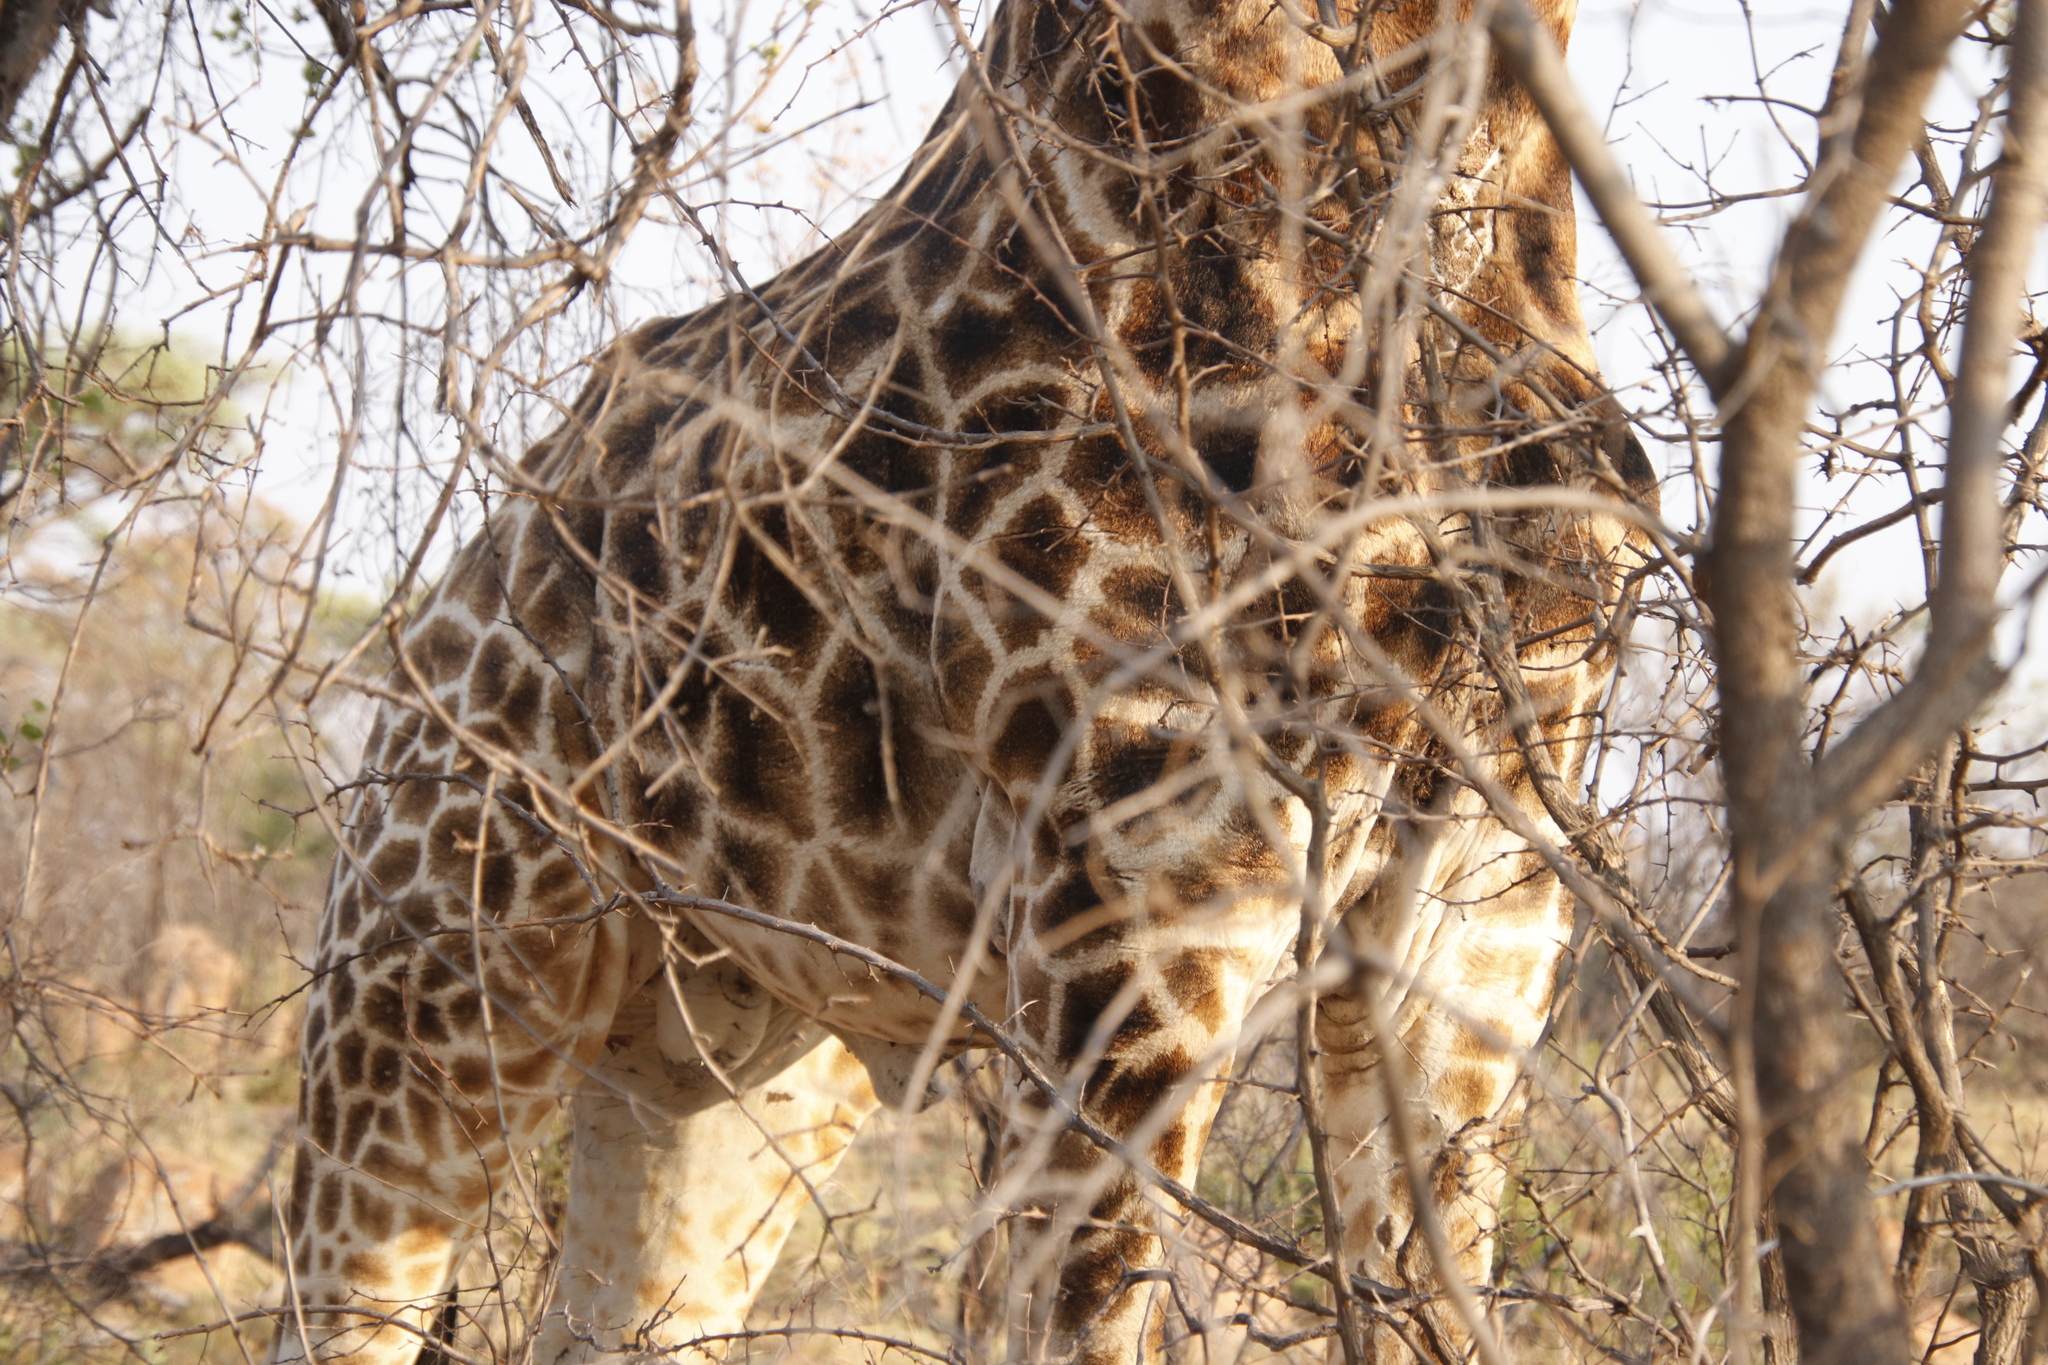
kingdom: Animalia
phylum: Chordata
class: Mammalia
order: Artiodactyla
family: Giraffidae
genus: Giraffa
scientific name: Giraffa giraffa
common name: Southern giraffe
